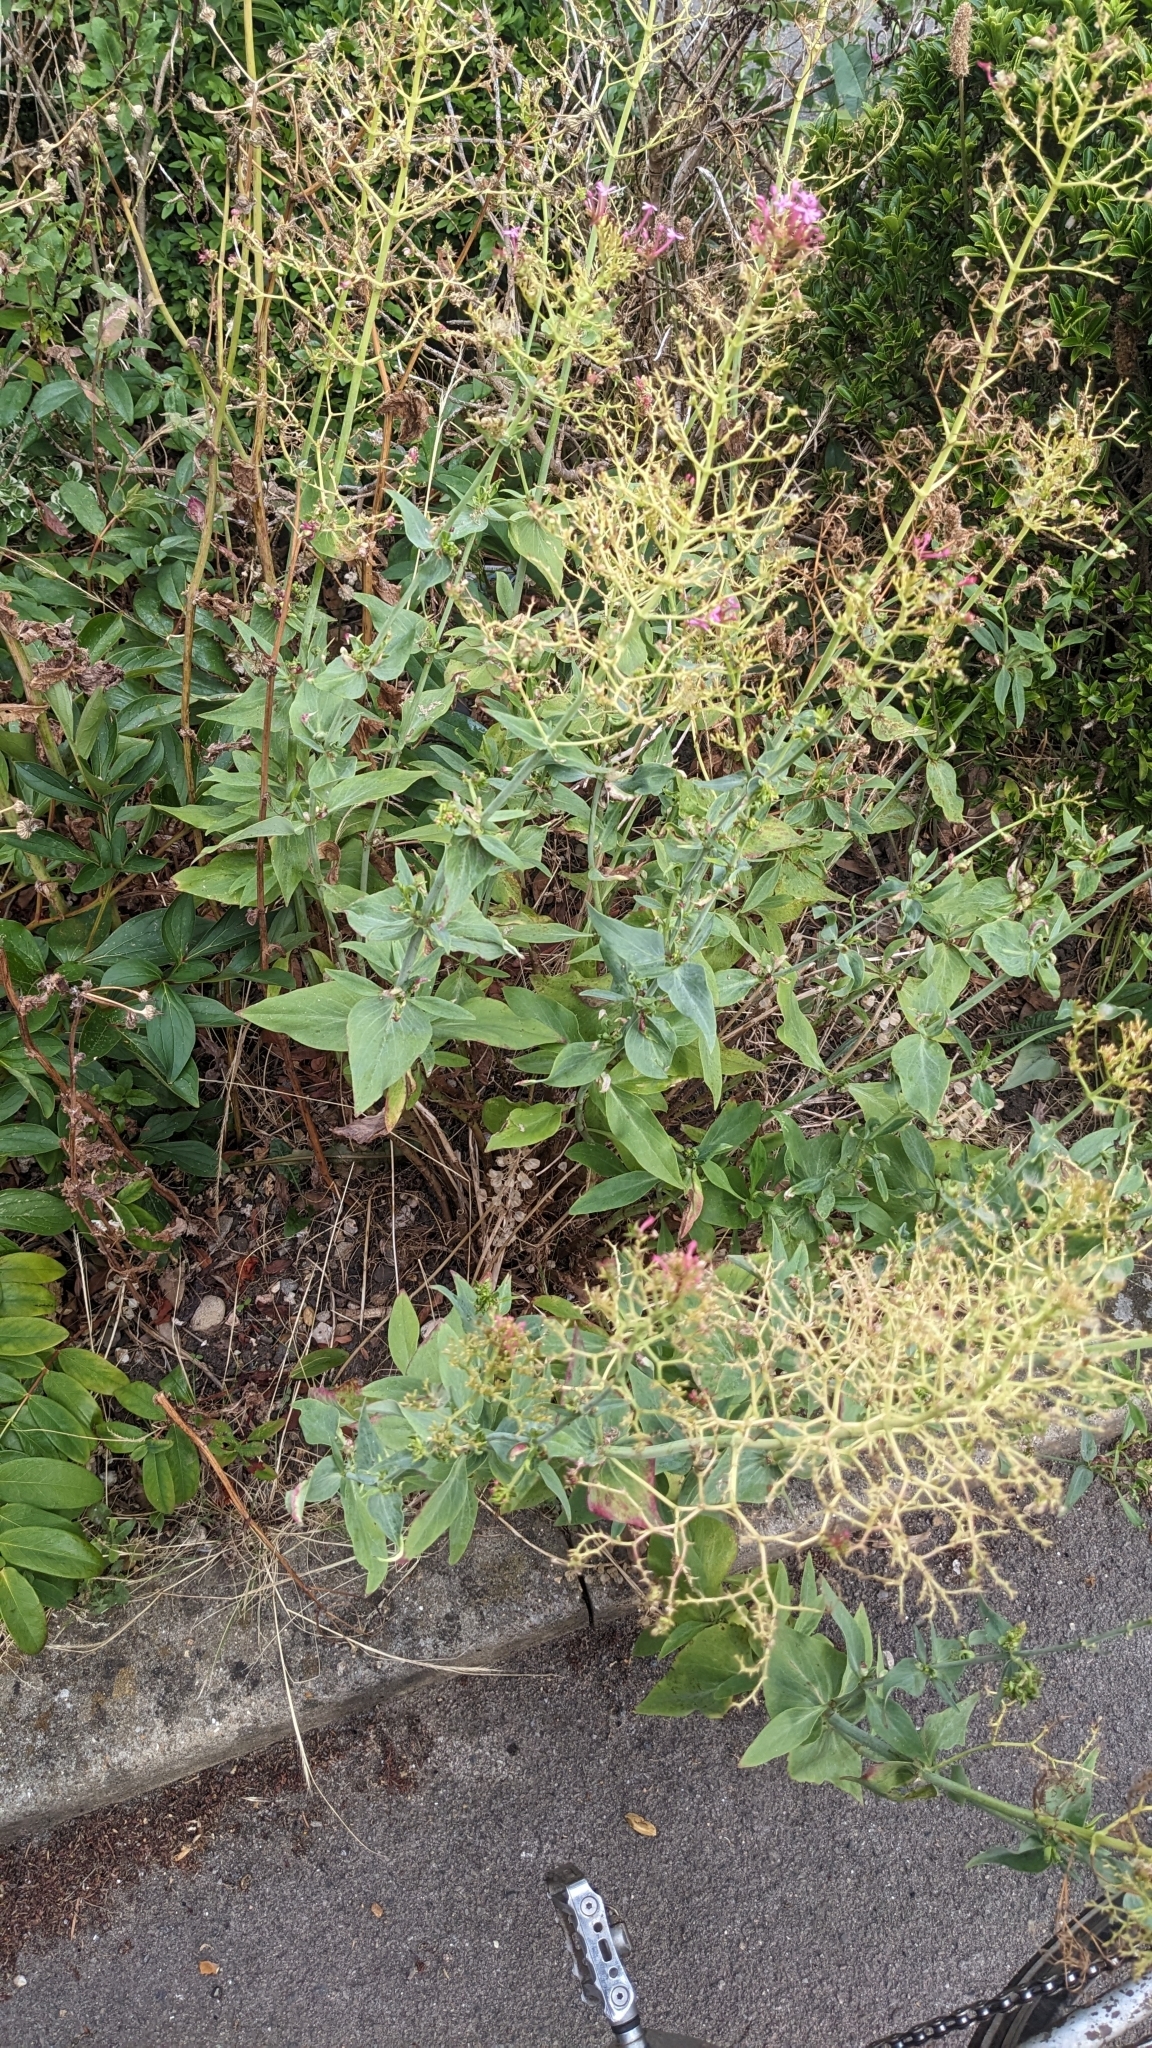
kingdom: Animalia
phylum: Arthropoda
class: Insecta
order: Hemiptera
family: Triozidae
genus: Trioza
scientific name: Trioza centranthi
